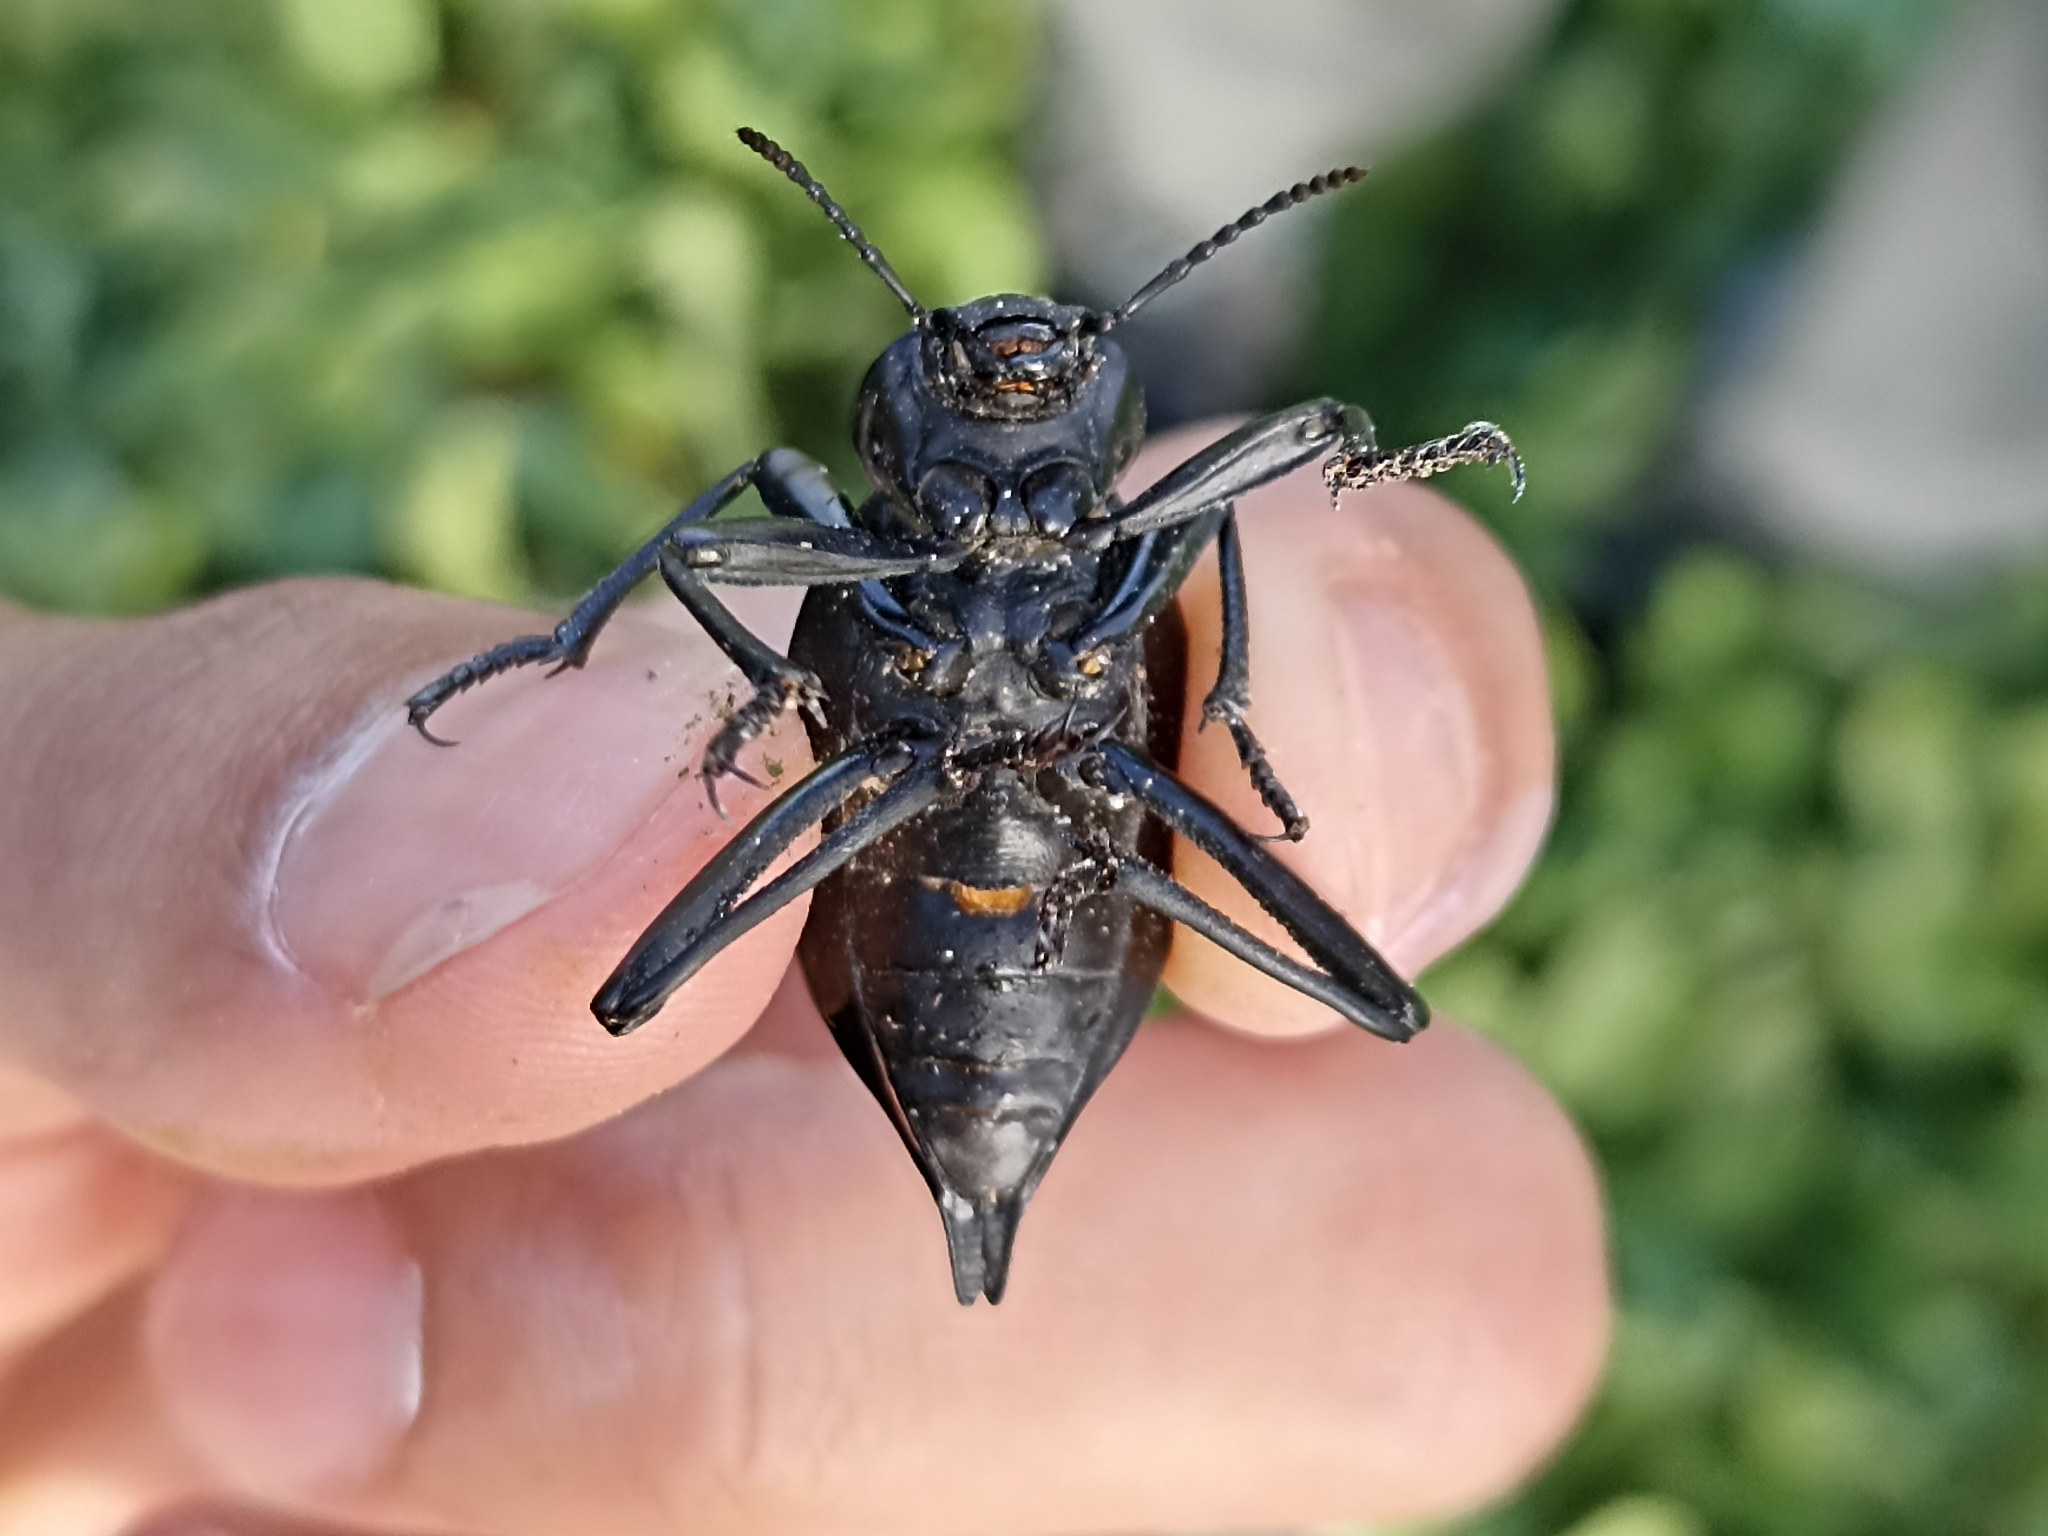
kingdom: Animalia
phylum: Arthropoda
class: Insecta
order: Coleoptera
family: Tenebrionidae
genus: Blaps
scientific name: Blaps hispanica
